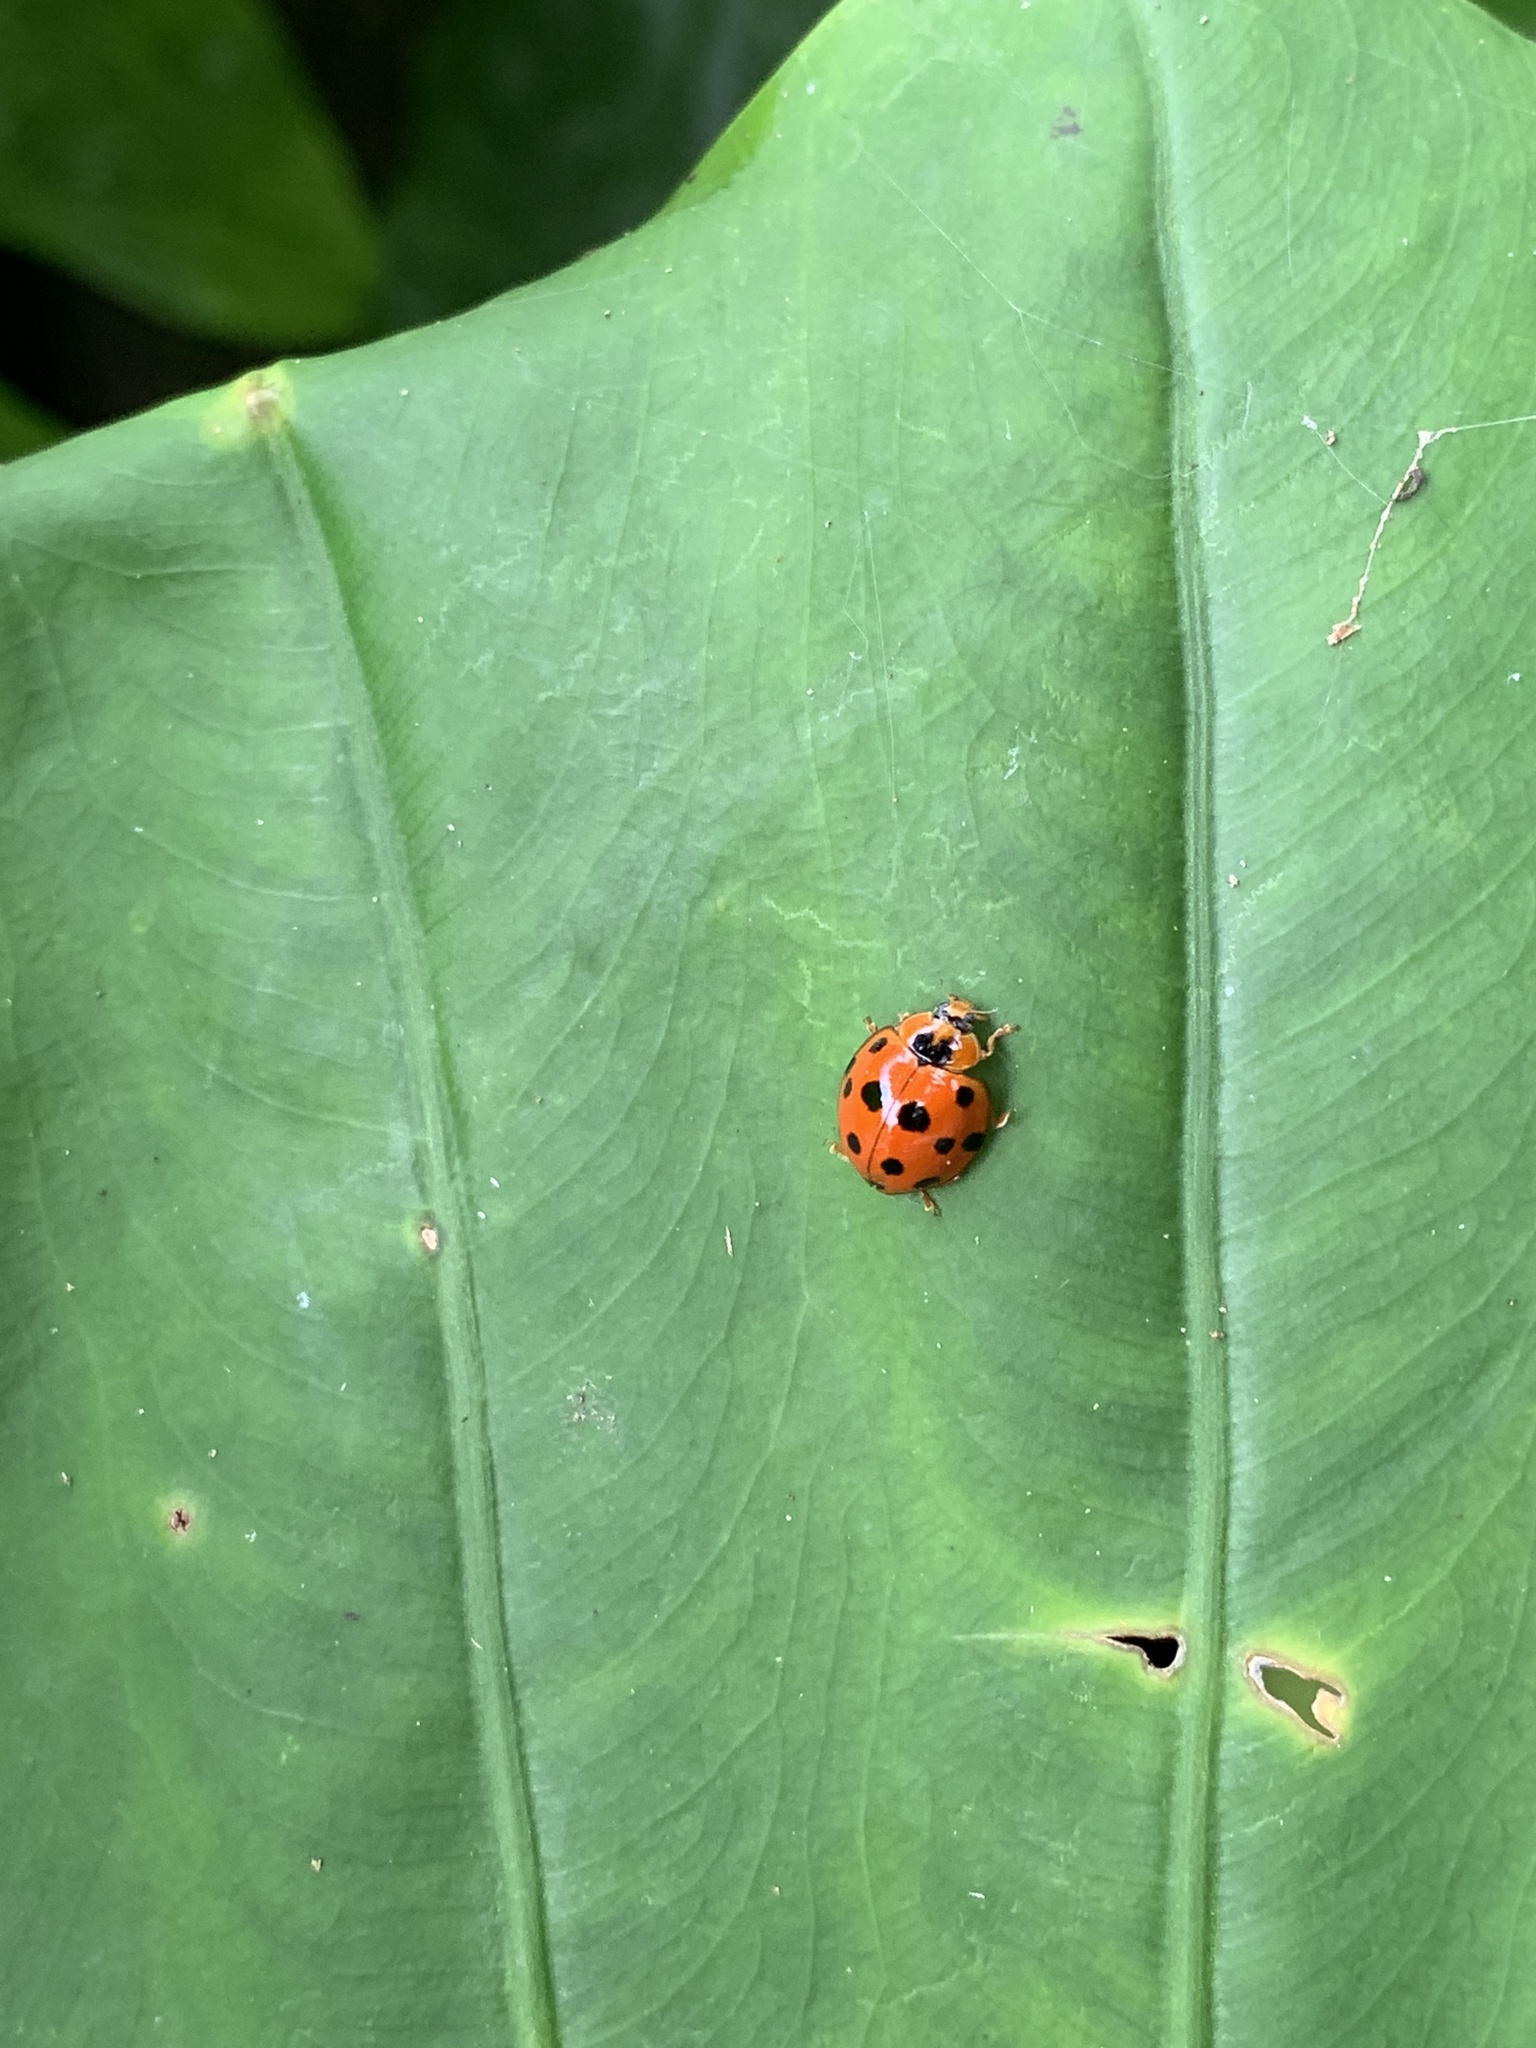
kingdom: Animalia
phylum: Arthropoda
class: Insecta
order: Coleoptera
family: Coccinellidae
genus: Harmonia
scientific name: Harmonia dimidiata
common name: Ladybird beetle
